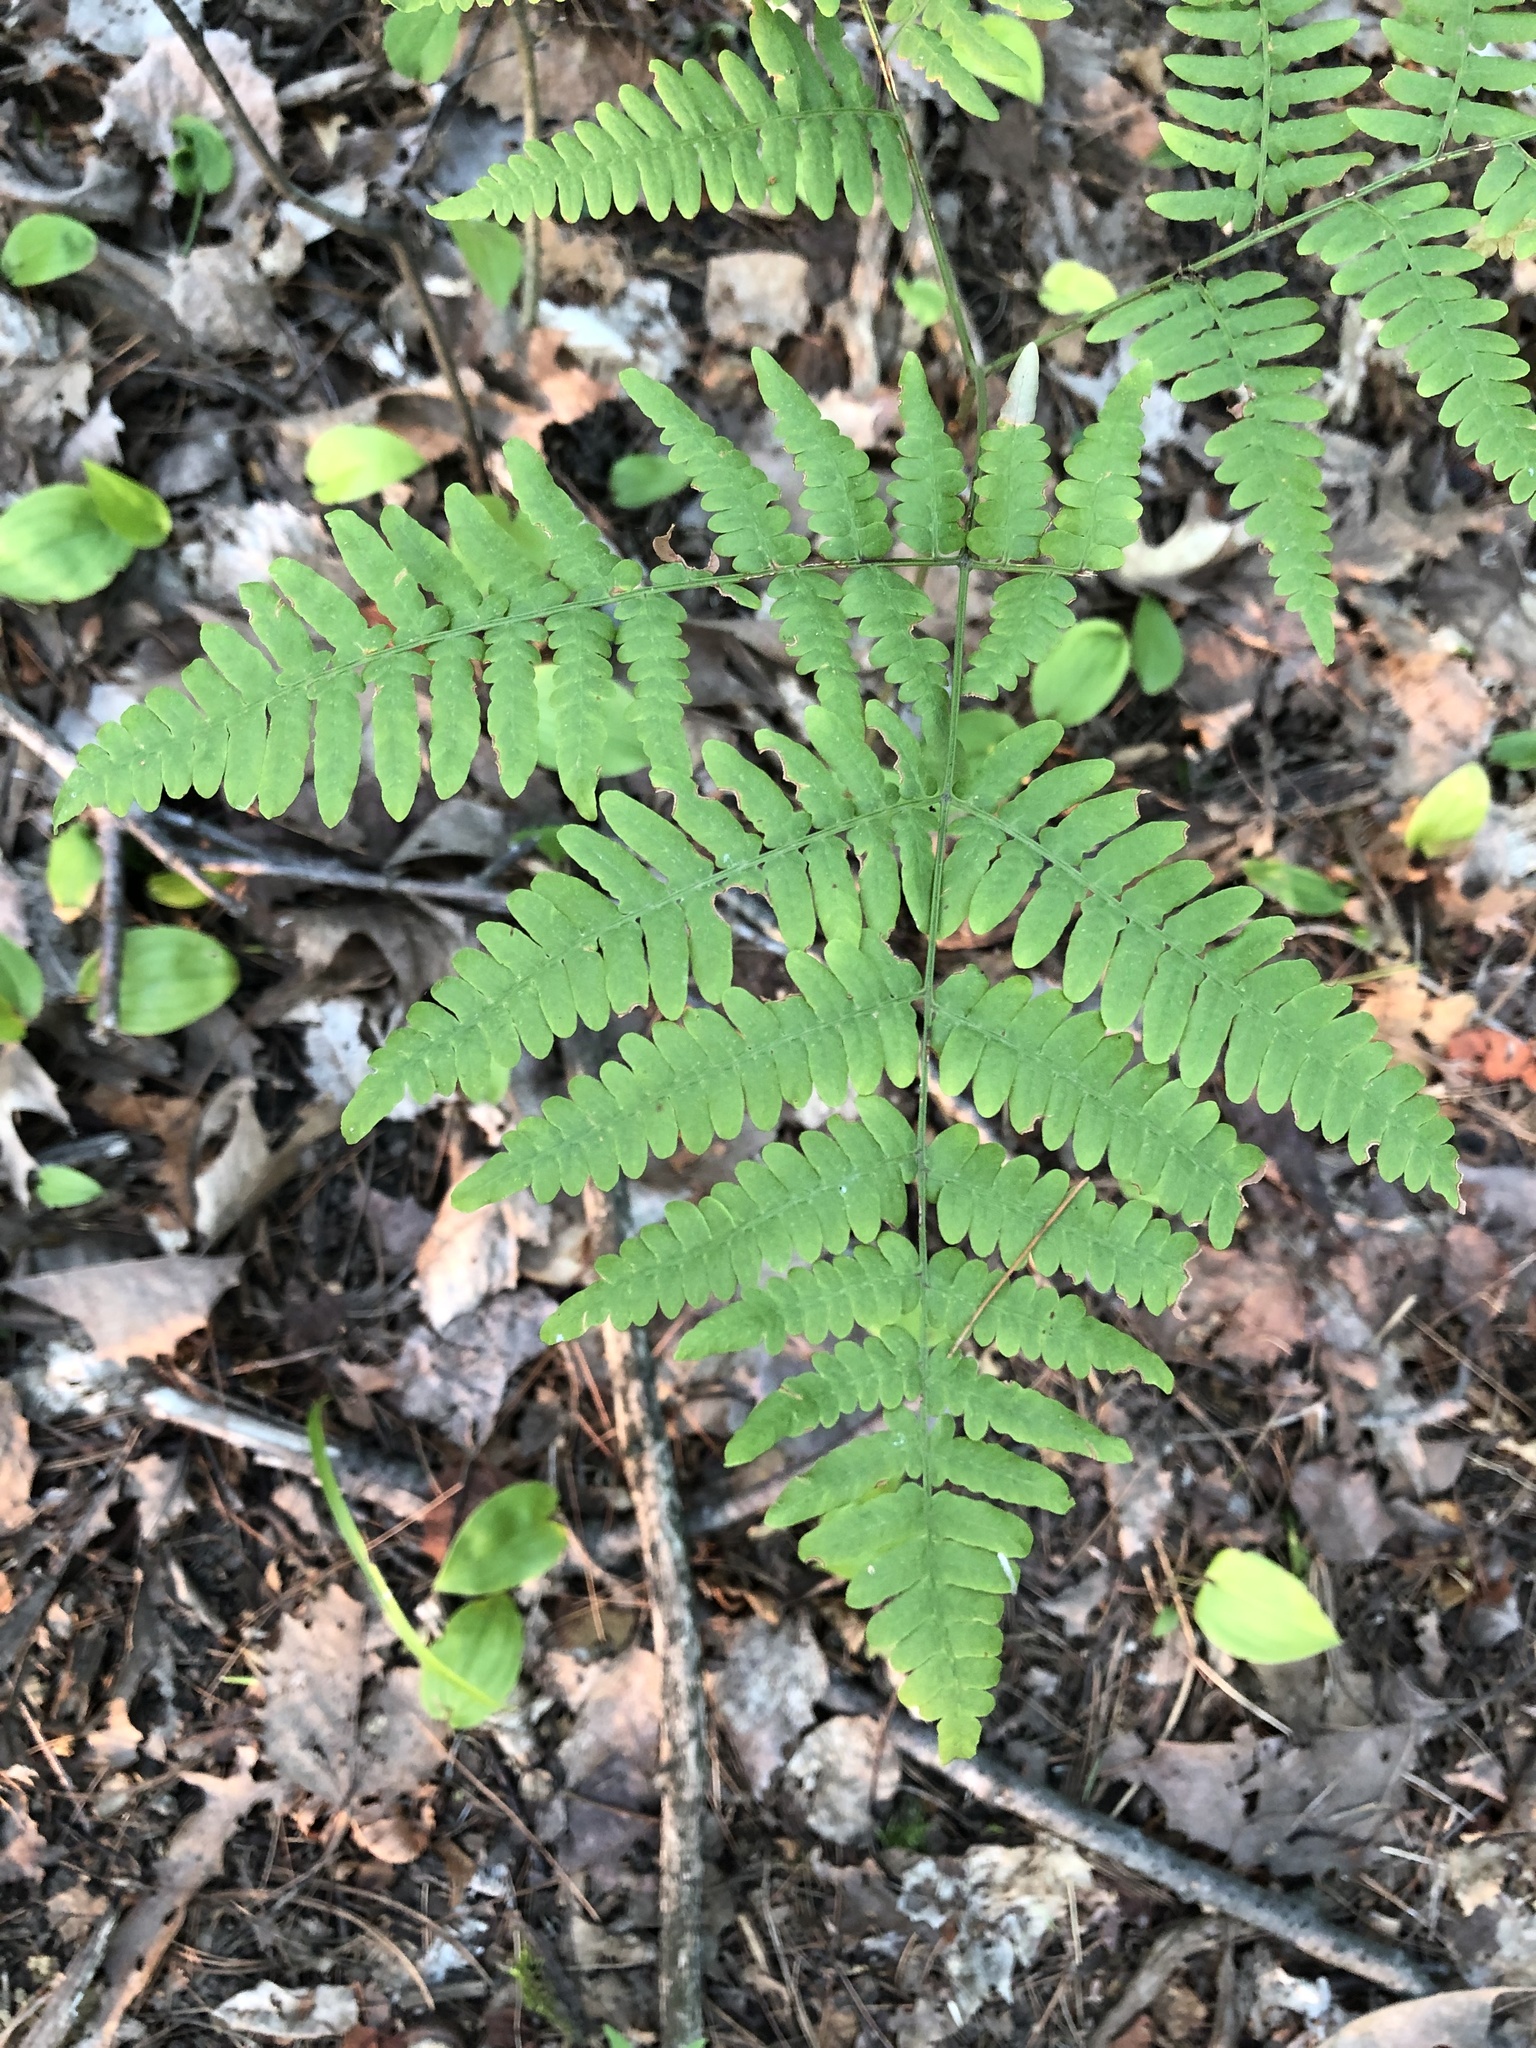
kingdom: Plantae
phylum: Tracheophyta
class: Polypodiopsida
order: Polypodiales
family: Dennstaedtiaceae
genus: Pteridium
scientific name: Pteridium aquilinum
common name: Bracken
